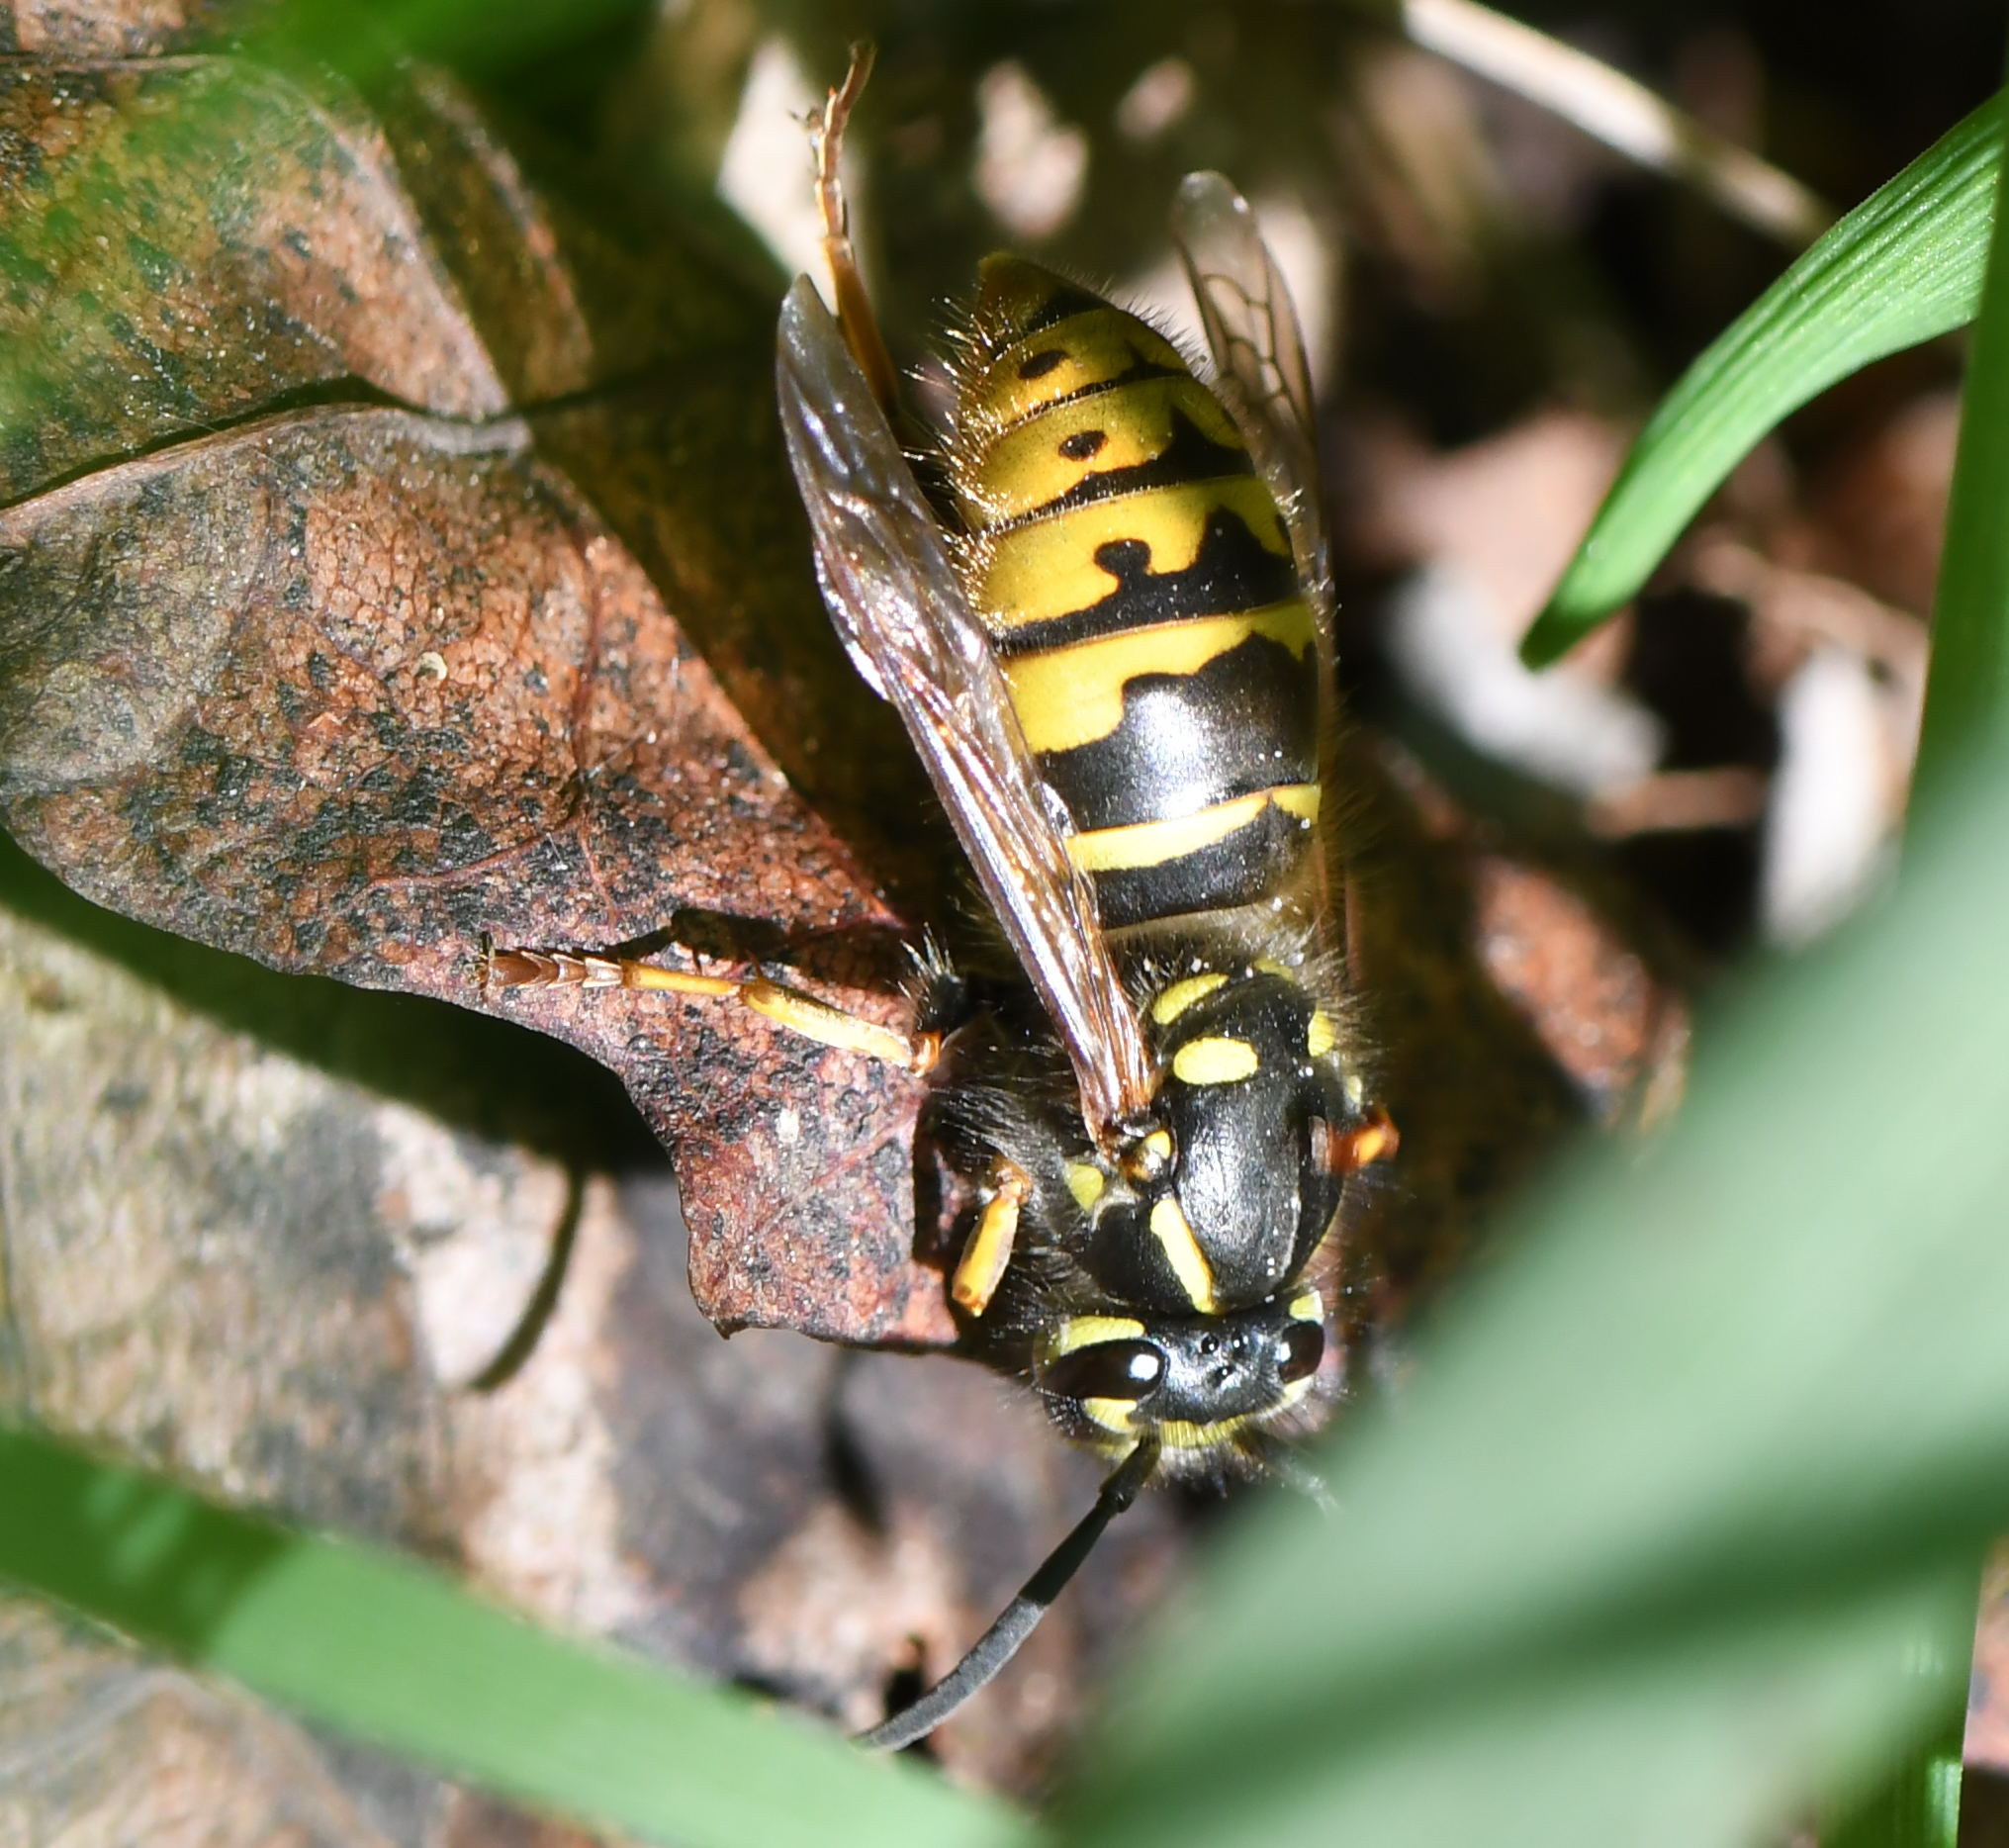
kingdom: Animalia
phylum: Arthropoda
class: Insecta
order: Hymenoptera
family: Vespidae
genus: Vespula
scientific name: Vespula vulgaris
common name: Common wasp
